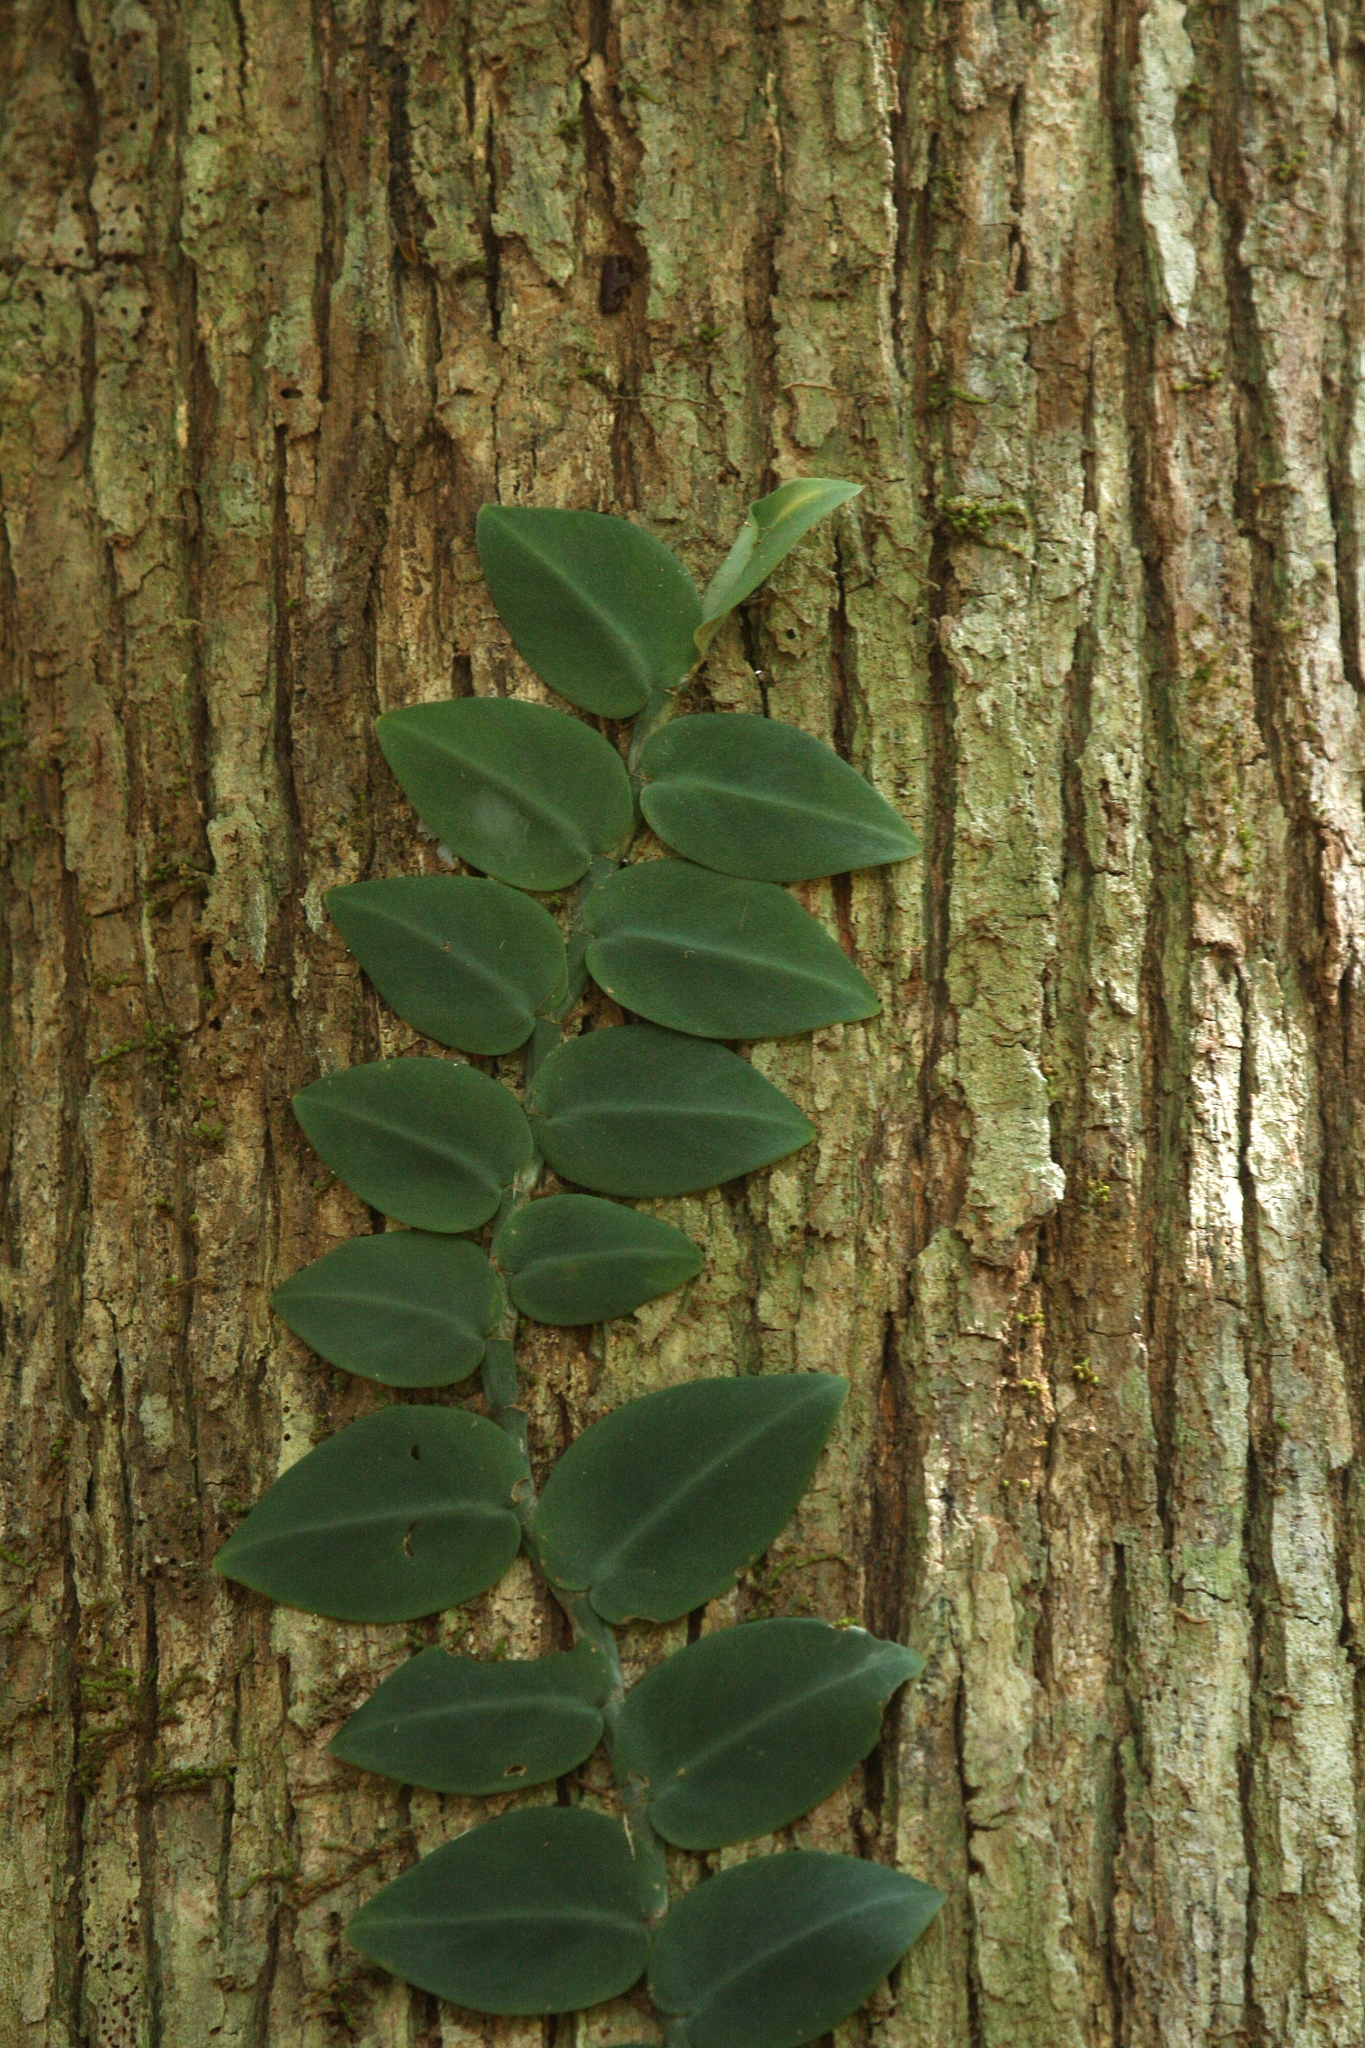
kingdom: Plantae
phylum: Tracheophyta
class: Liliopsida
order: Alismatales
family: Araceae
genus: Rhaphidophora
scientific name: Rhaphidophora hayi
